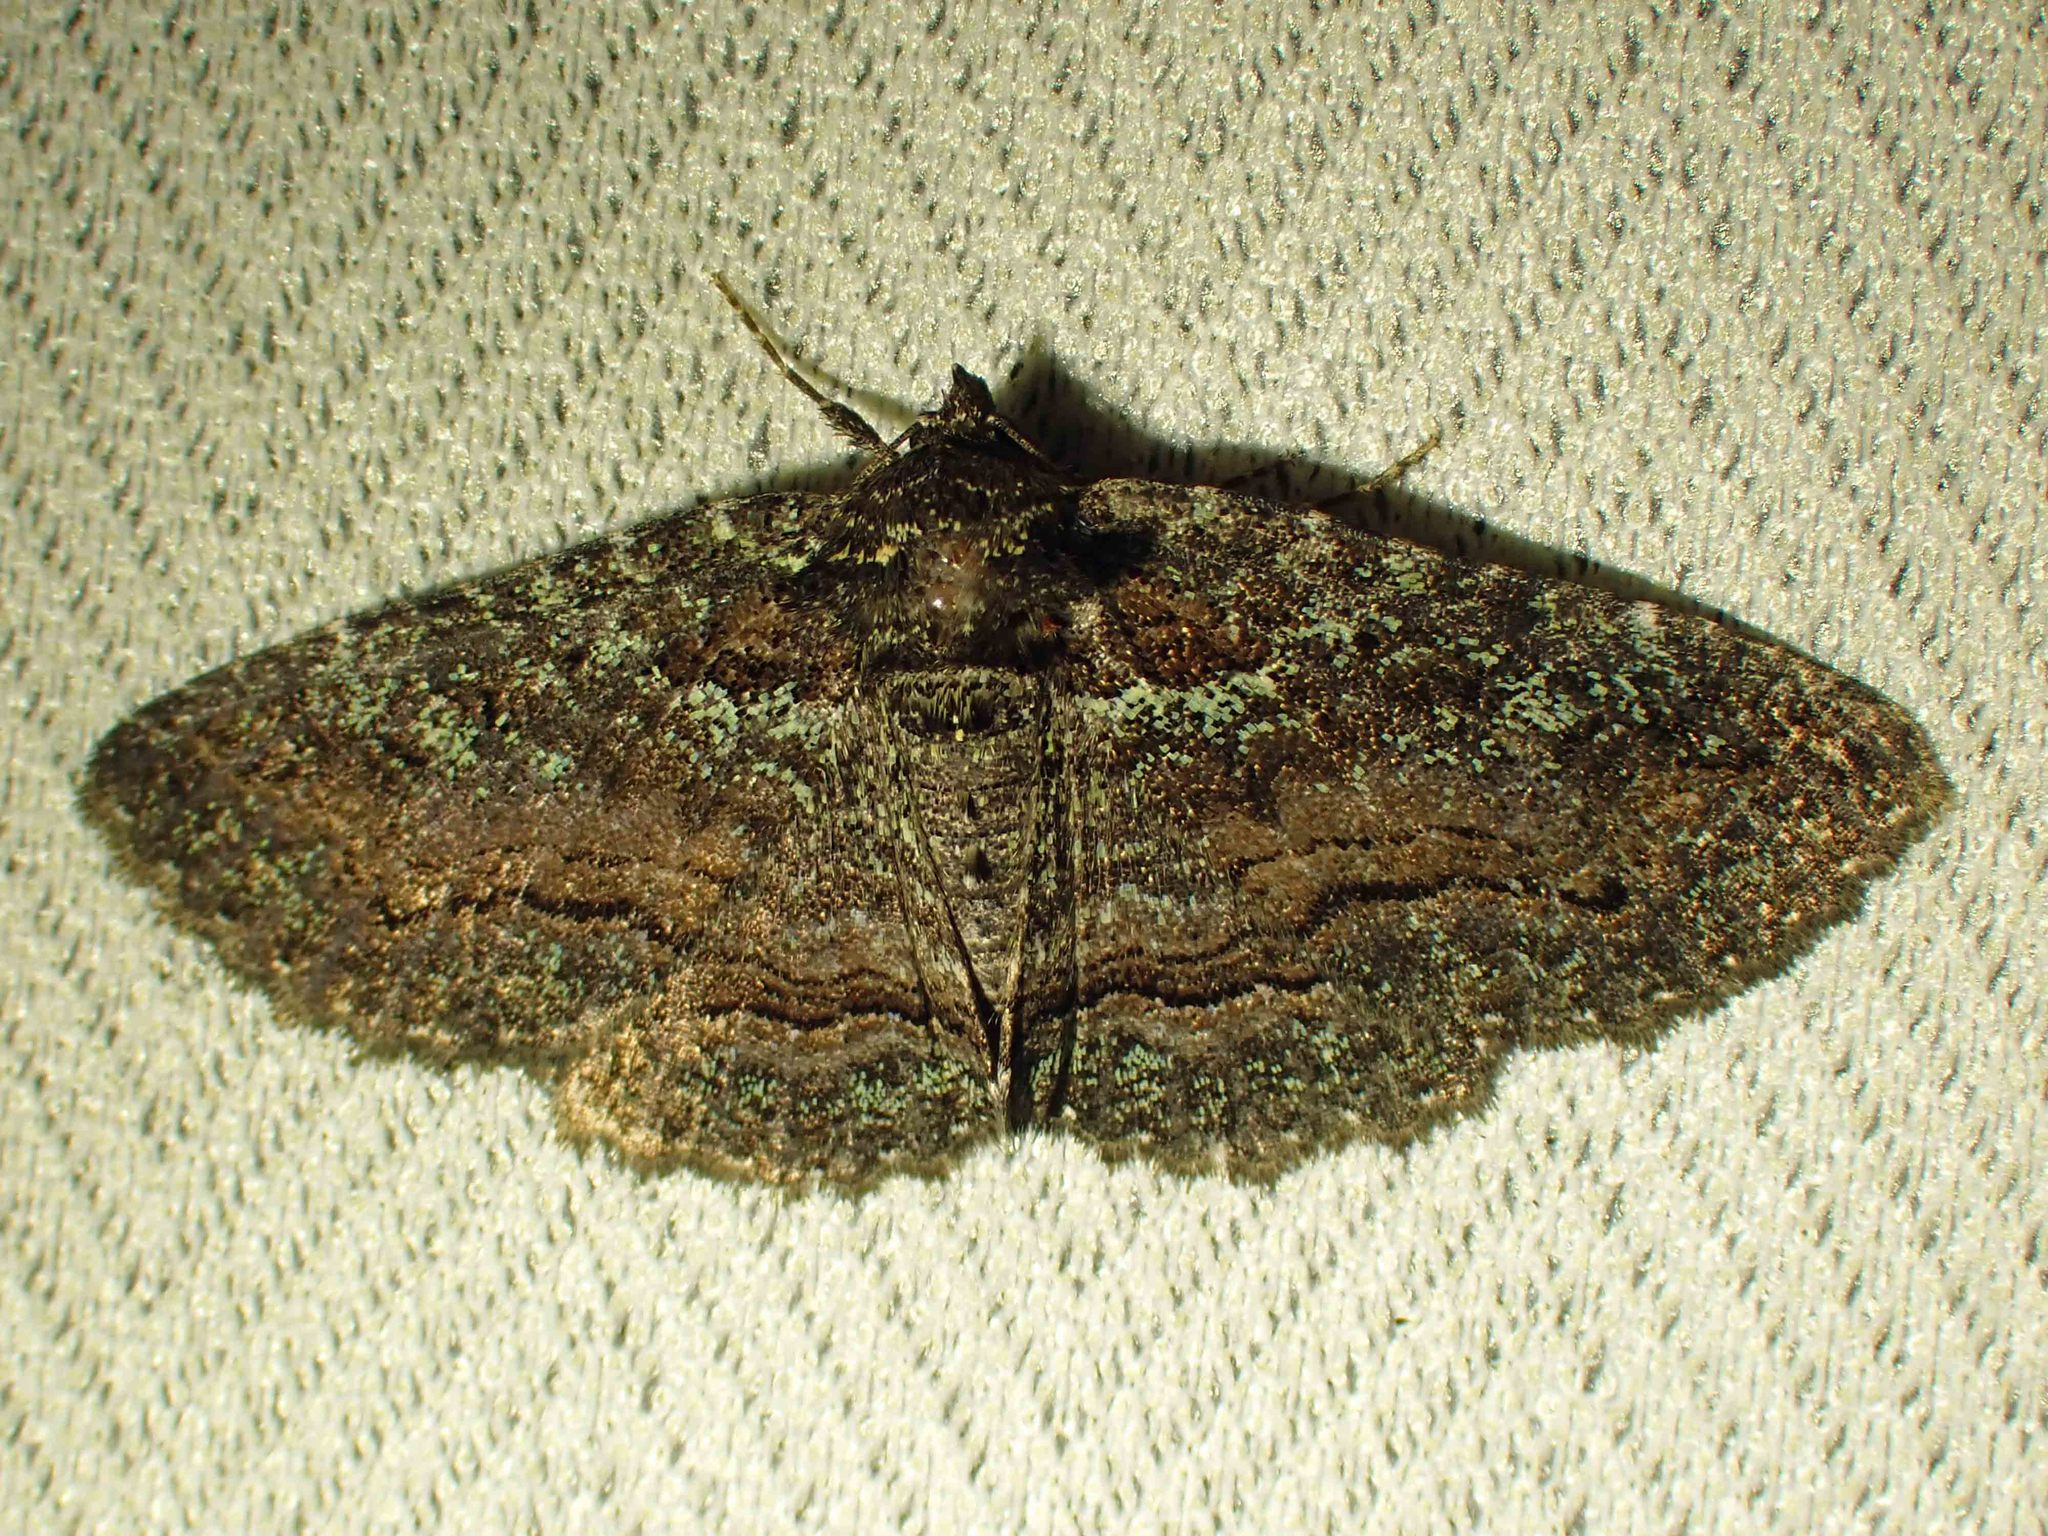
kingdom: Animalia
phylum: Arthropoda
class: Insecta
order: Lepidoptera
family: Erebidae
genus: Zale
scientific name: Zale aeruginosa
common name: Green-dusted zale moth
